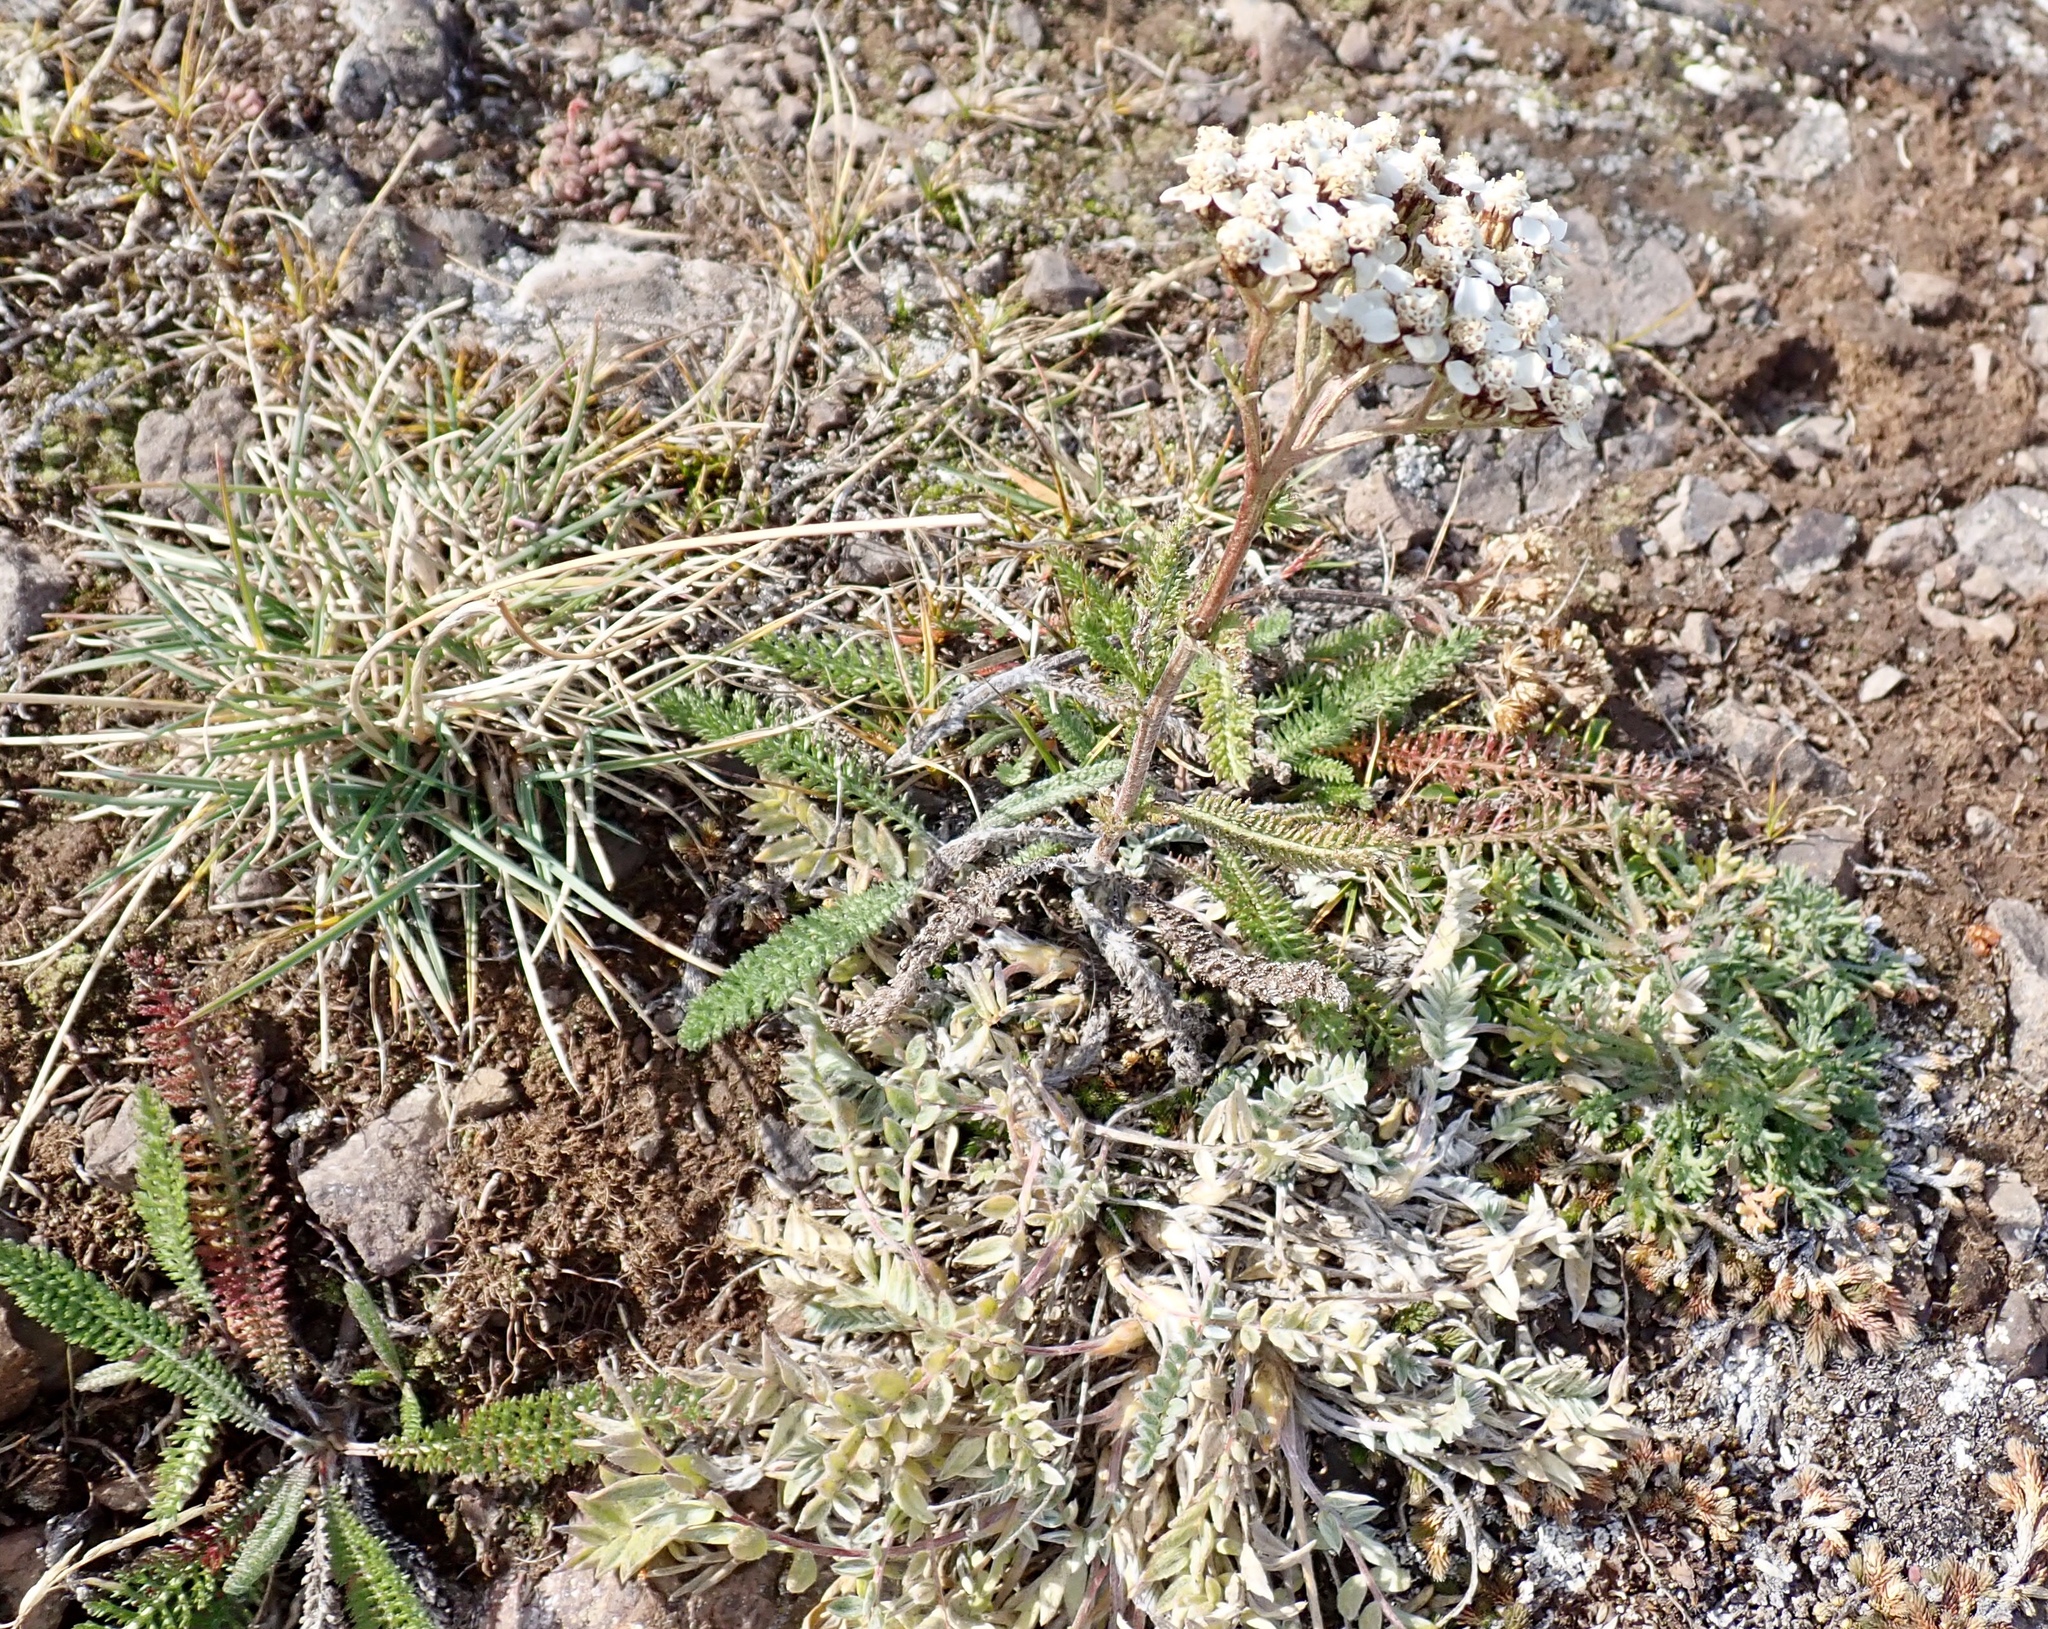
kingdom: Plantae
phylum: Tracheophyta
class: Magnoliopsida
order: Asterales
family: Asteraceae
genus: Achillea
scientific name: Achillea millefolium
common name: Yarrow
